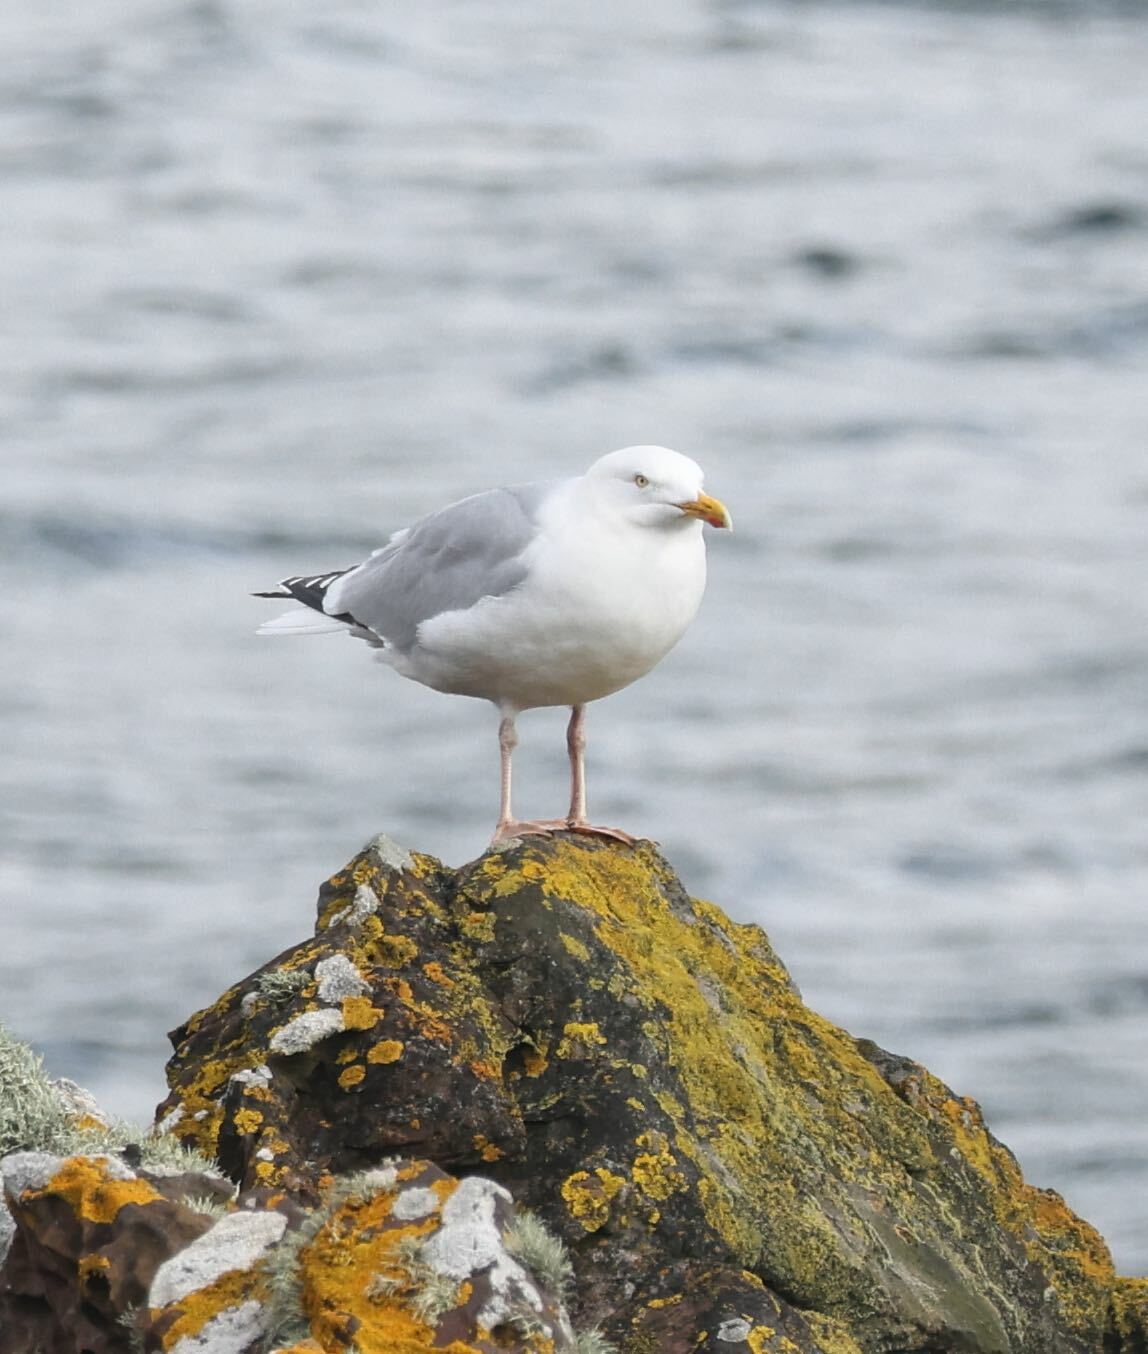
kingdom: Animalia
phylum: Chordata
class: Aves
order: Charadriiformes
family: Laridae
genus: Larus
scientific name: Larus argentatus
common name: Herring gull
